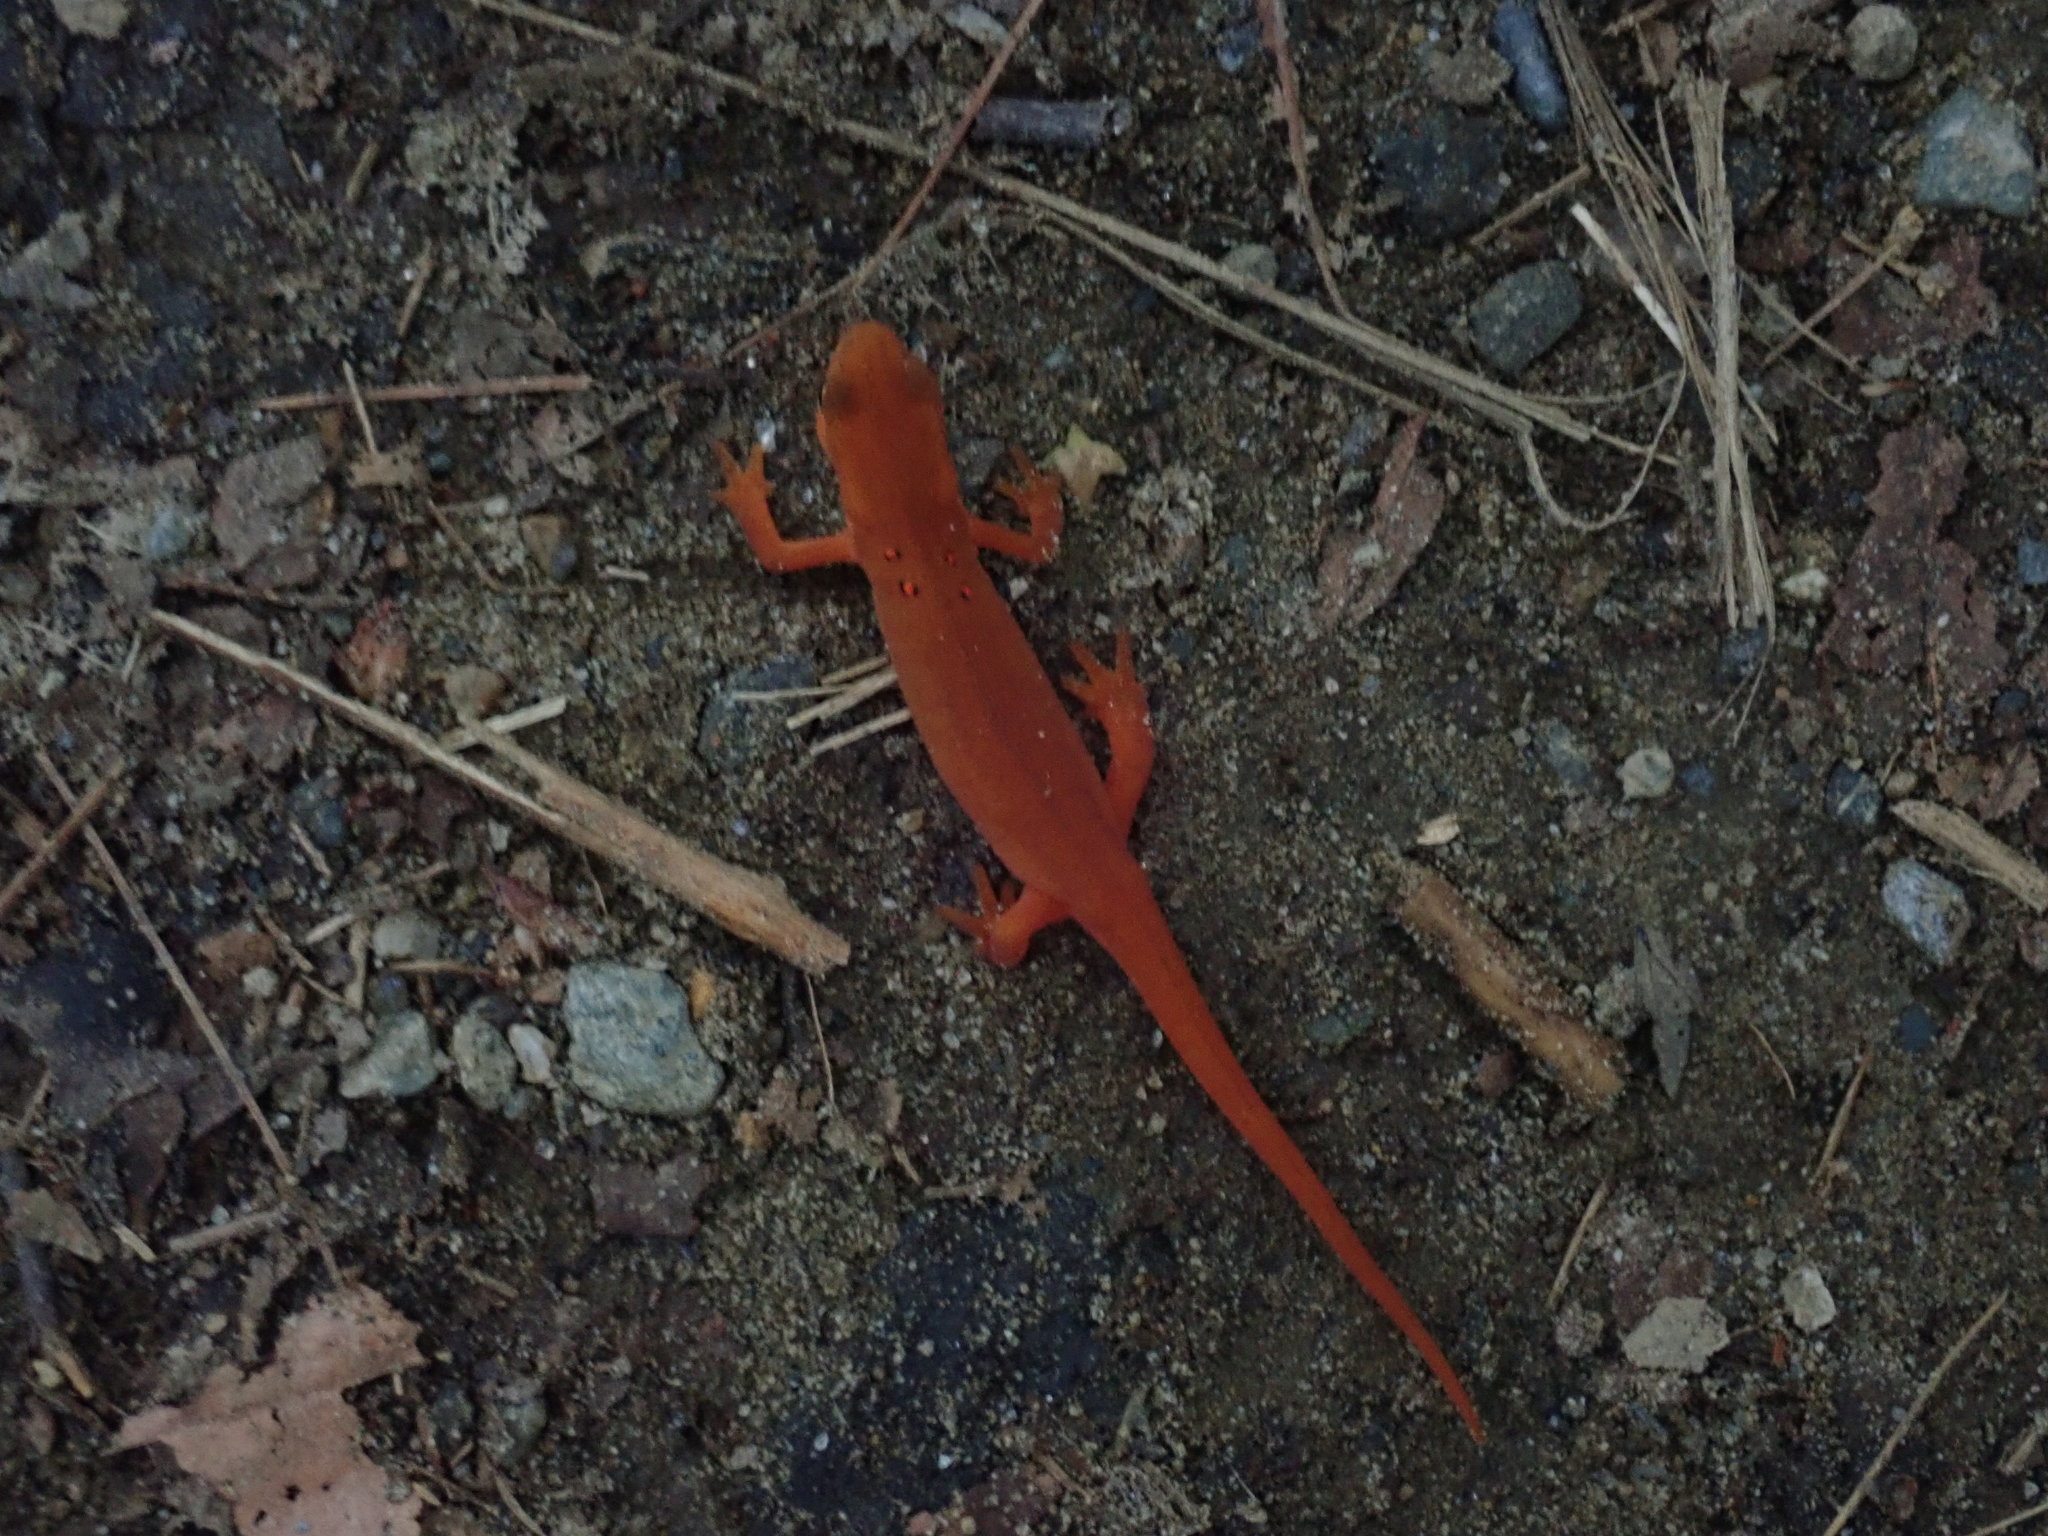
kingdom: Animalia
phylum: Chordata
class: Amphibia
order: Caudata
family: Salamandridae
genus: Notophthalmus
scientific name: Notophthalmus viridescens
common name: Eastern newt
